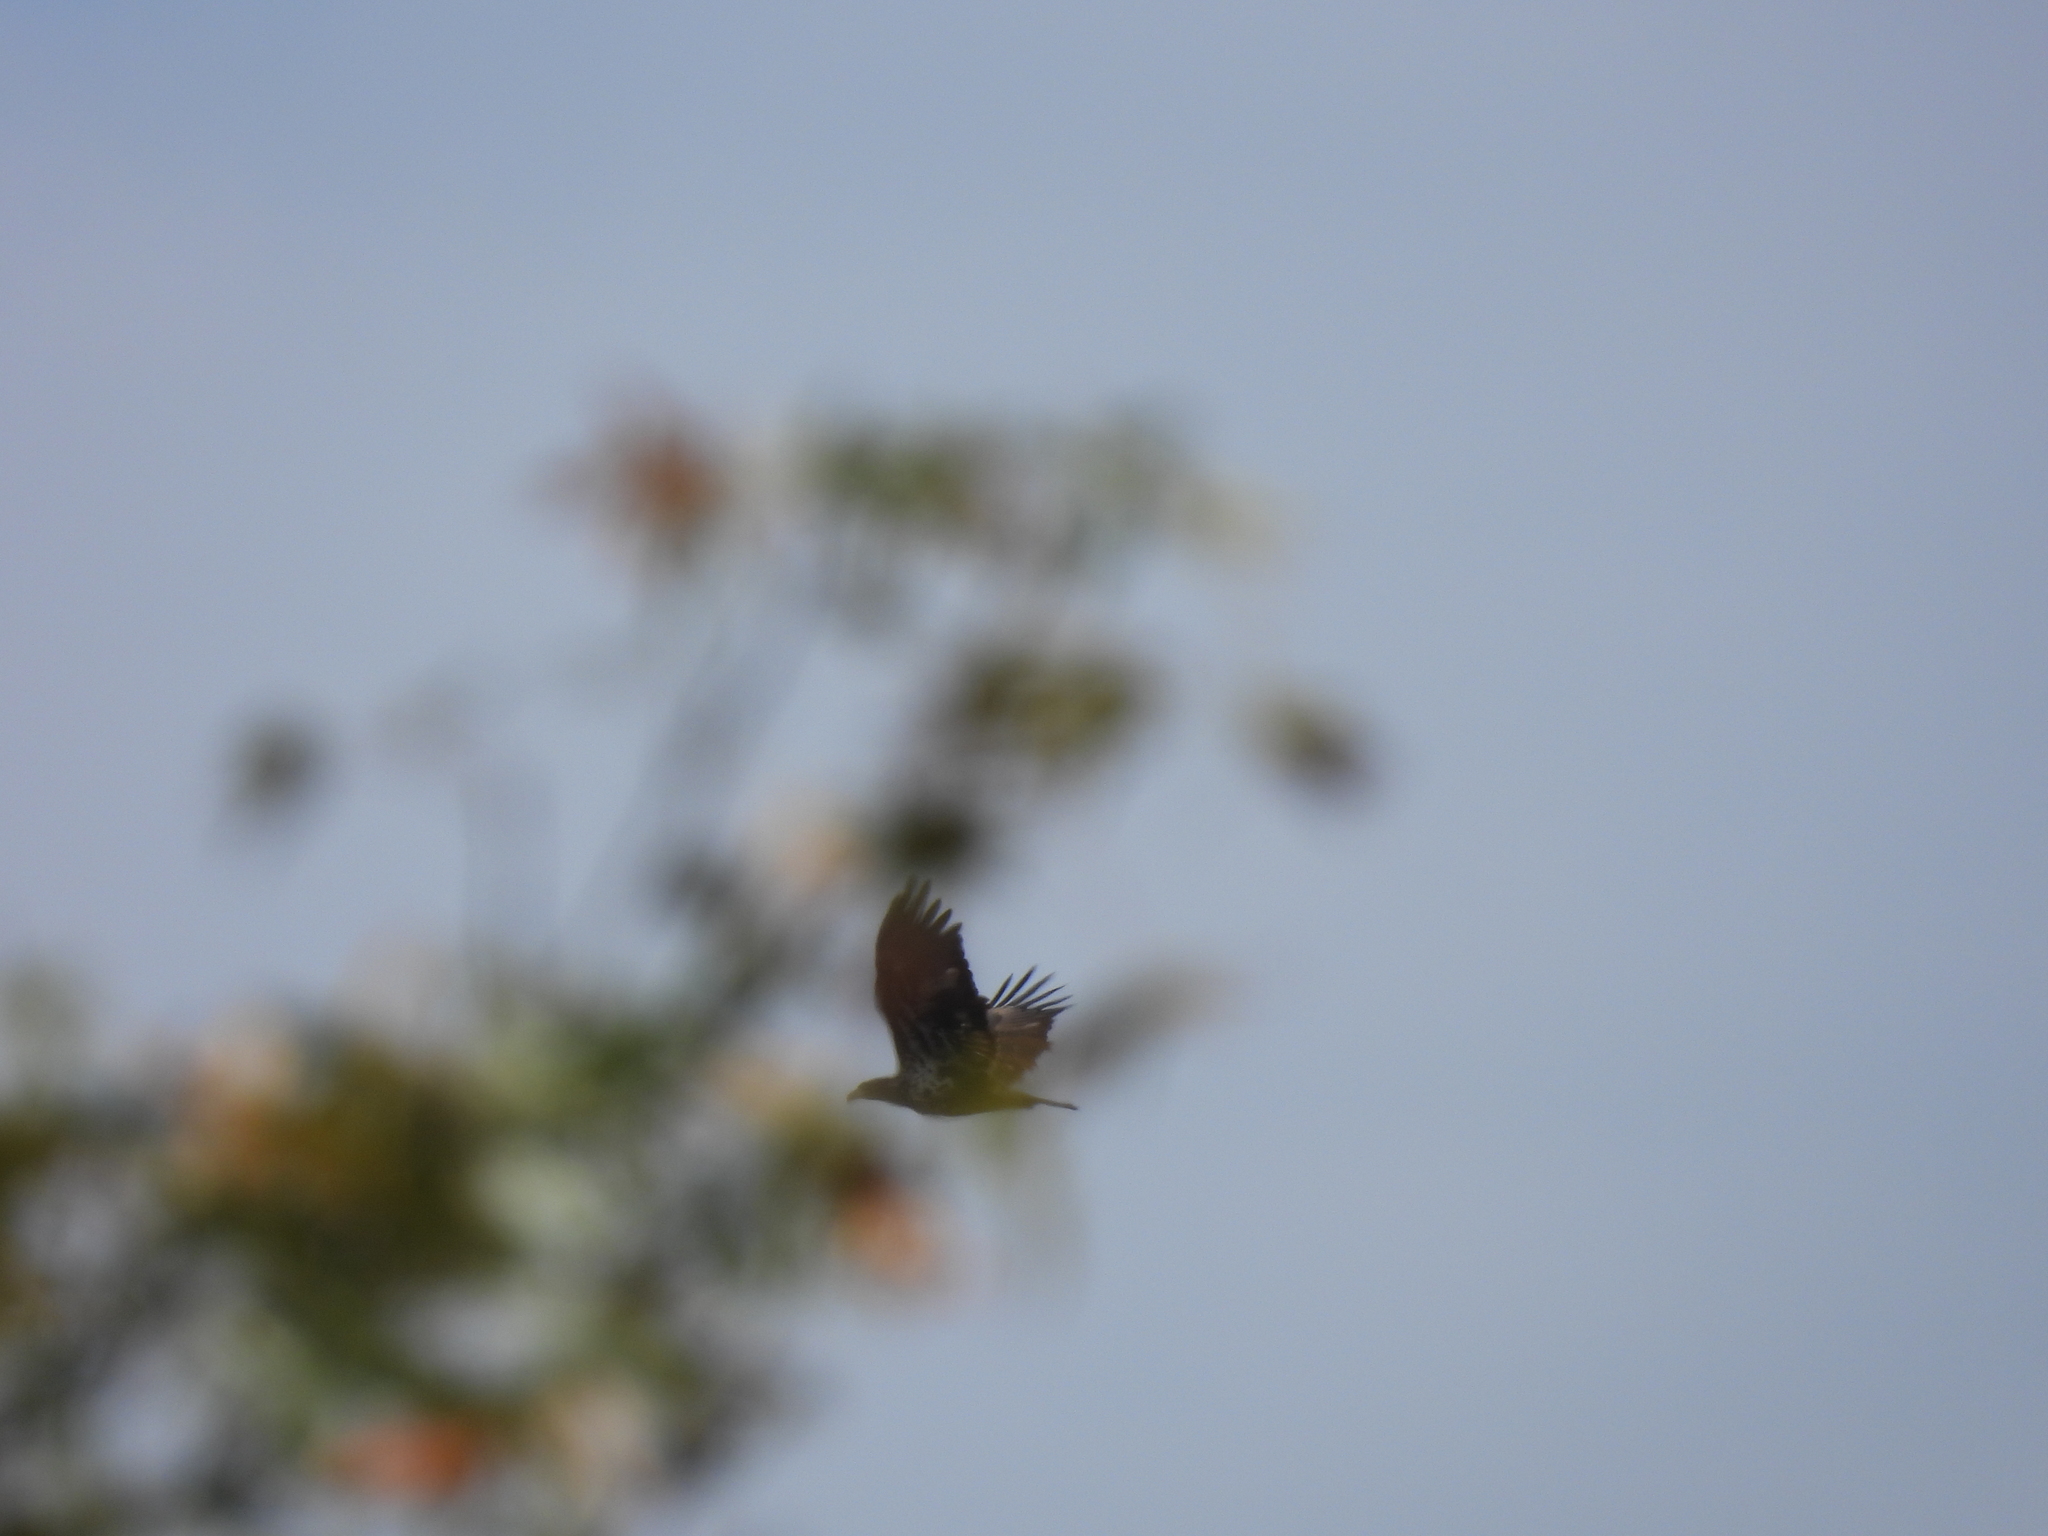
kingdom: Animalia
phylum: Chordata
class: Aves
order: Accipitriformes
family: Accipitridae
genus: Haliaeetus
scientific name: Haliaeetus leucocephalus
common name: Bald eagle
